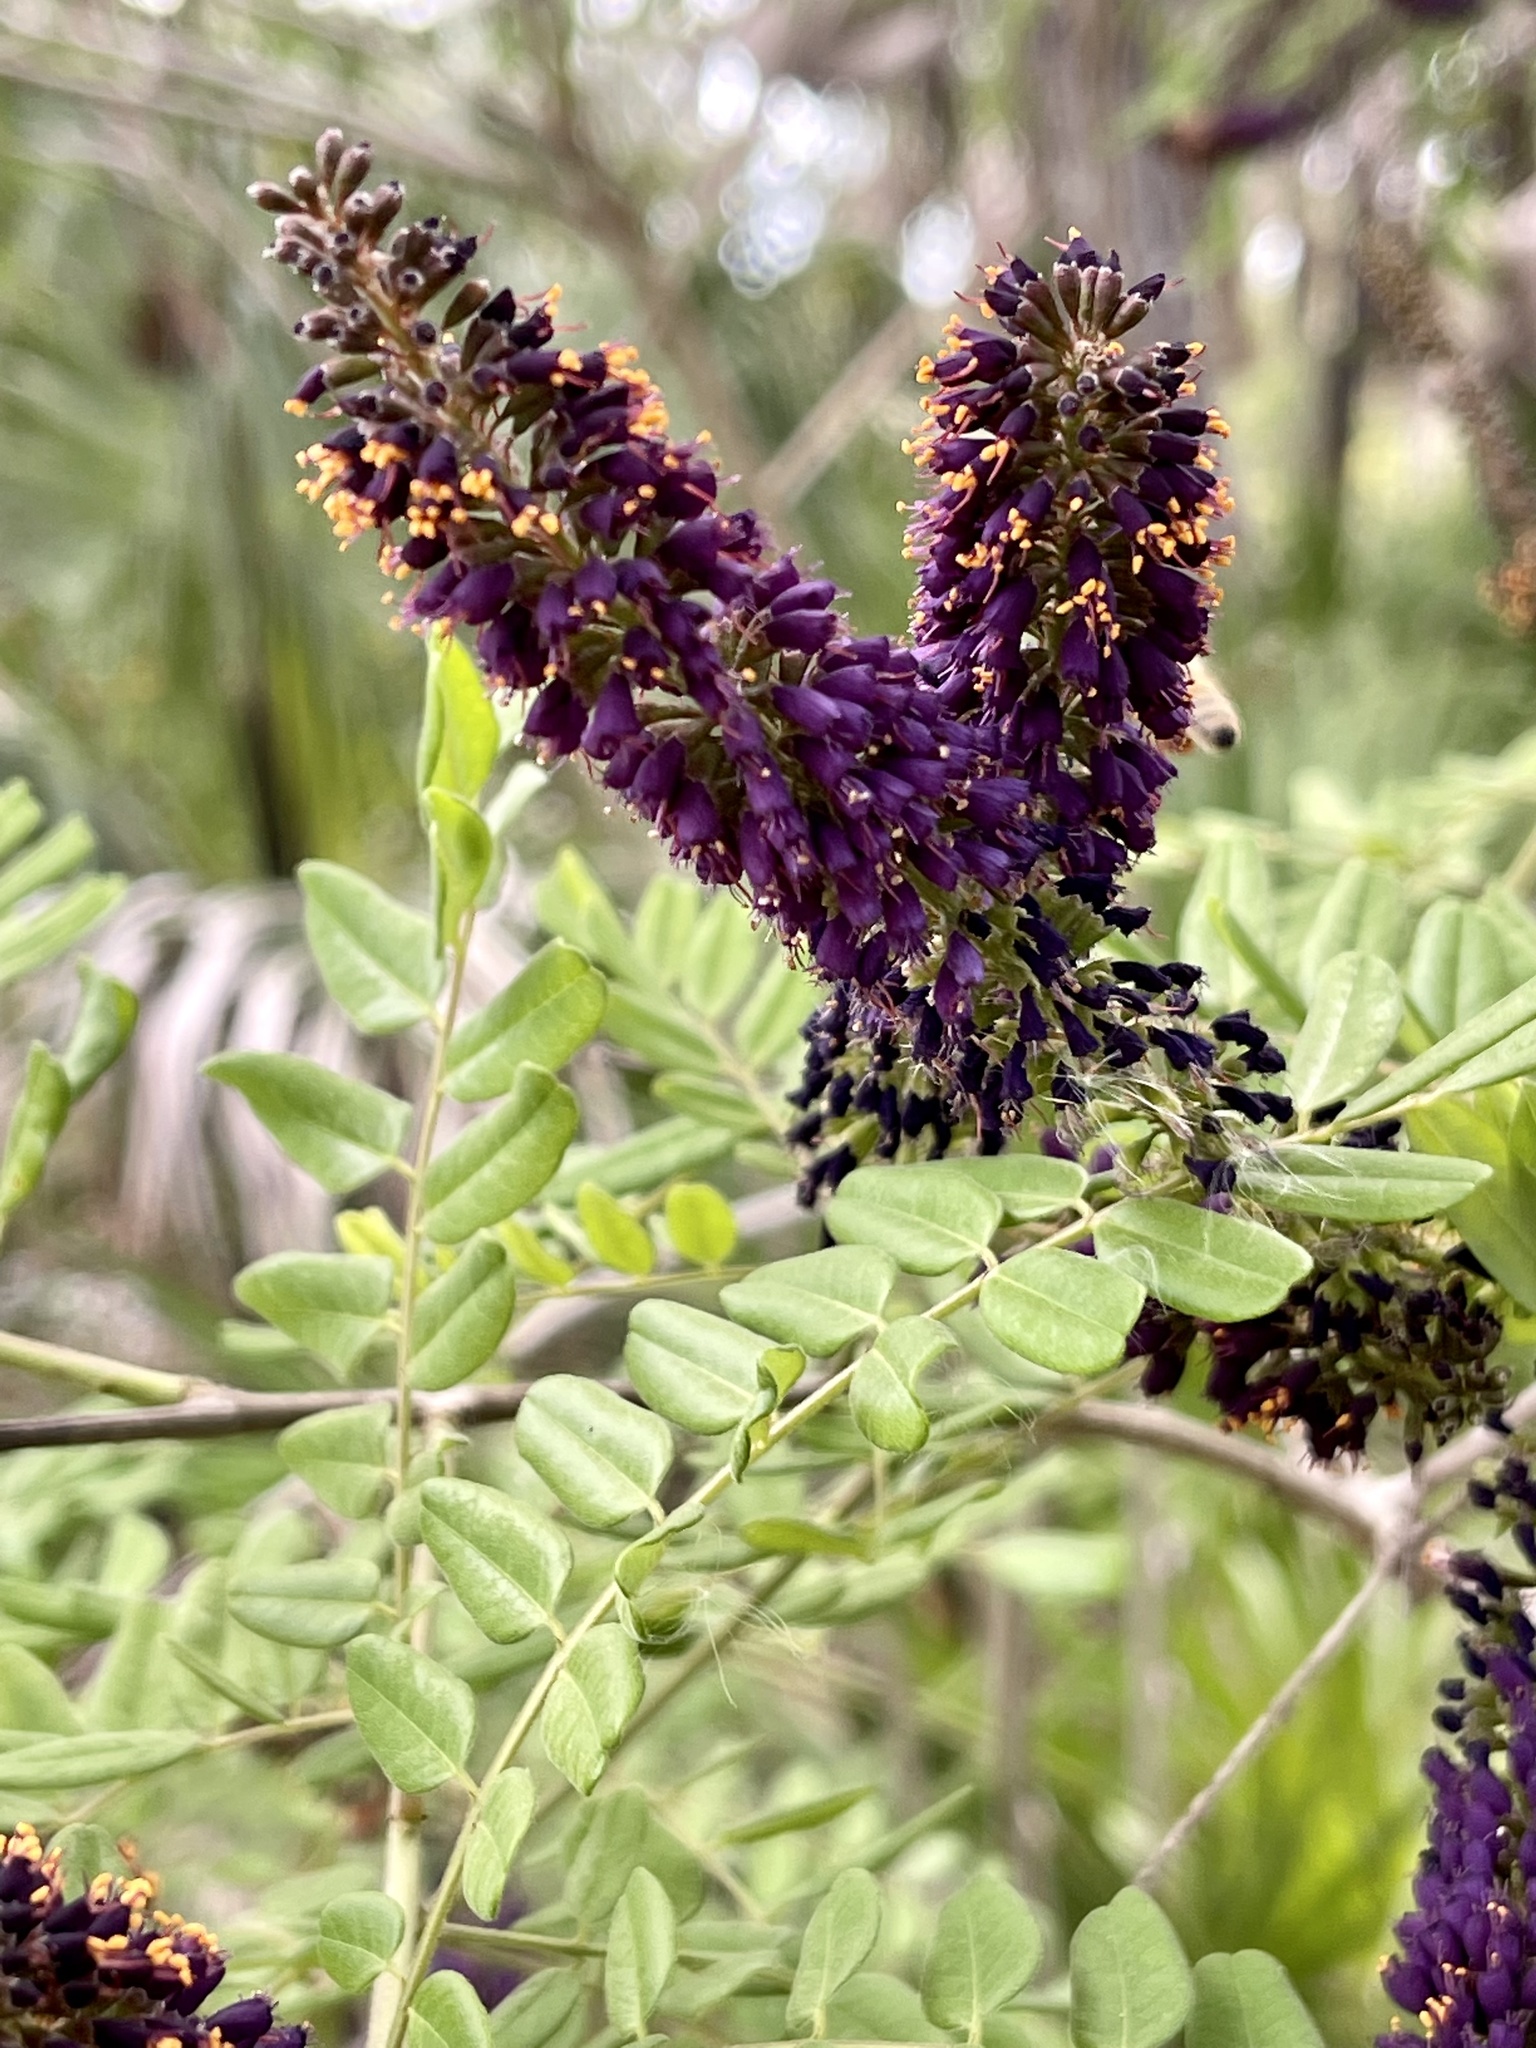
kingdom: Plantae
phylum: Tracheophyta
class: Magnoliopsida
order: Fabales
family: Fabaceae
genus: Amorpha
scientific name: Amorpha fruticosa
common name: False indigo
